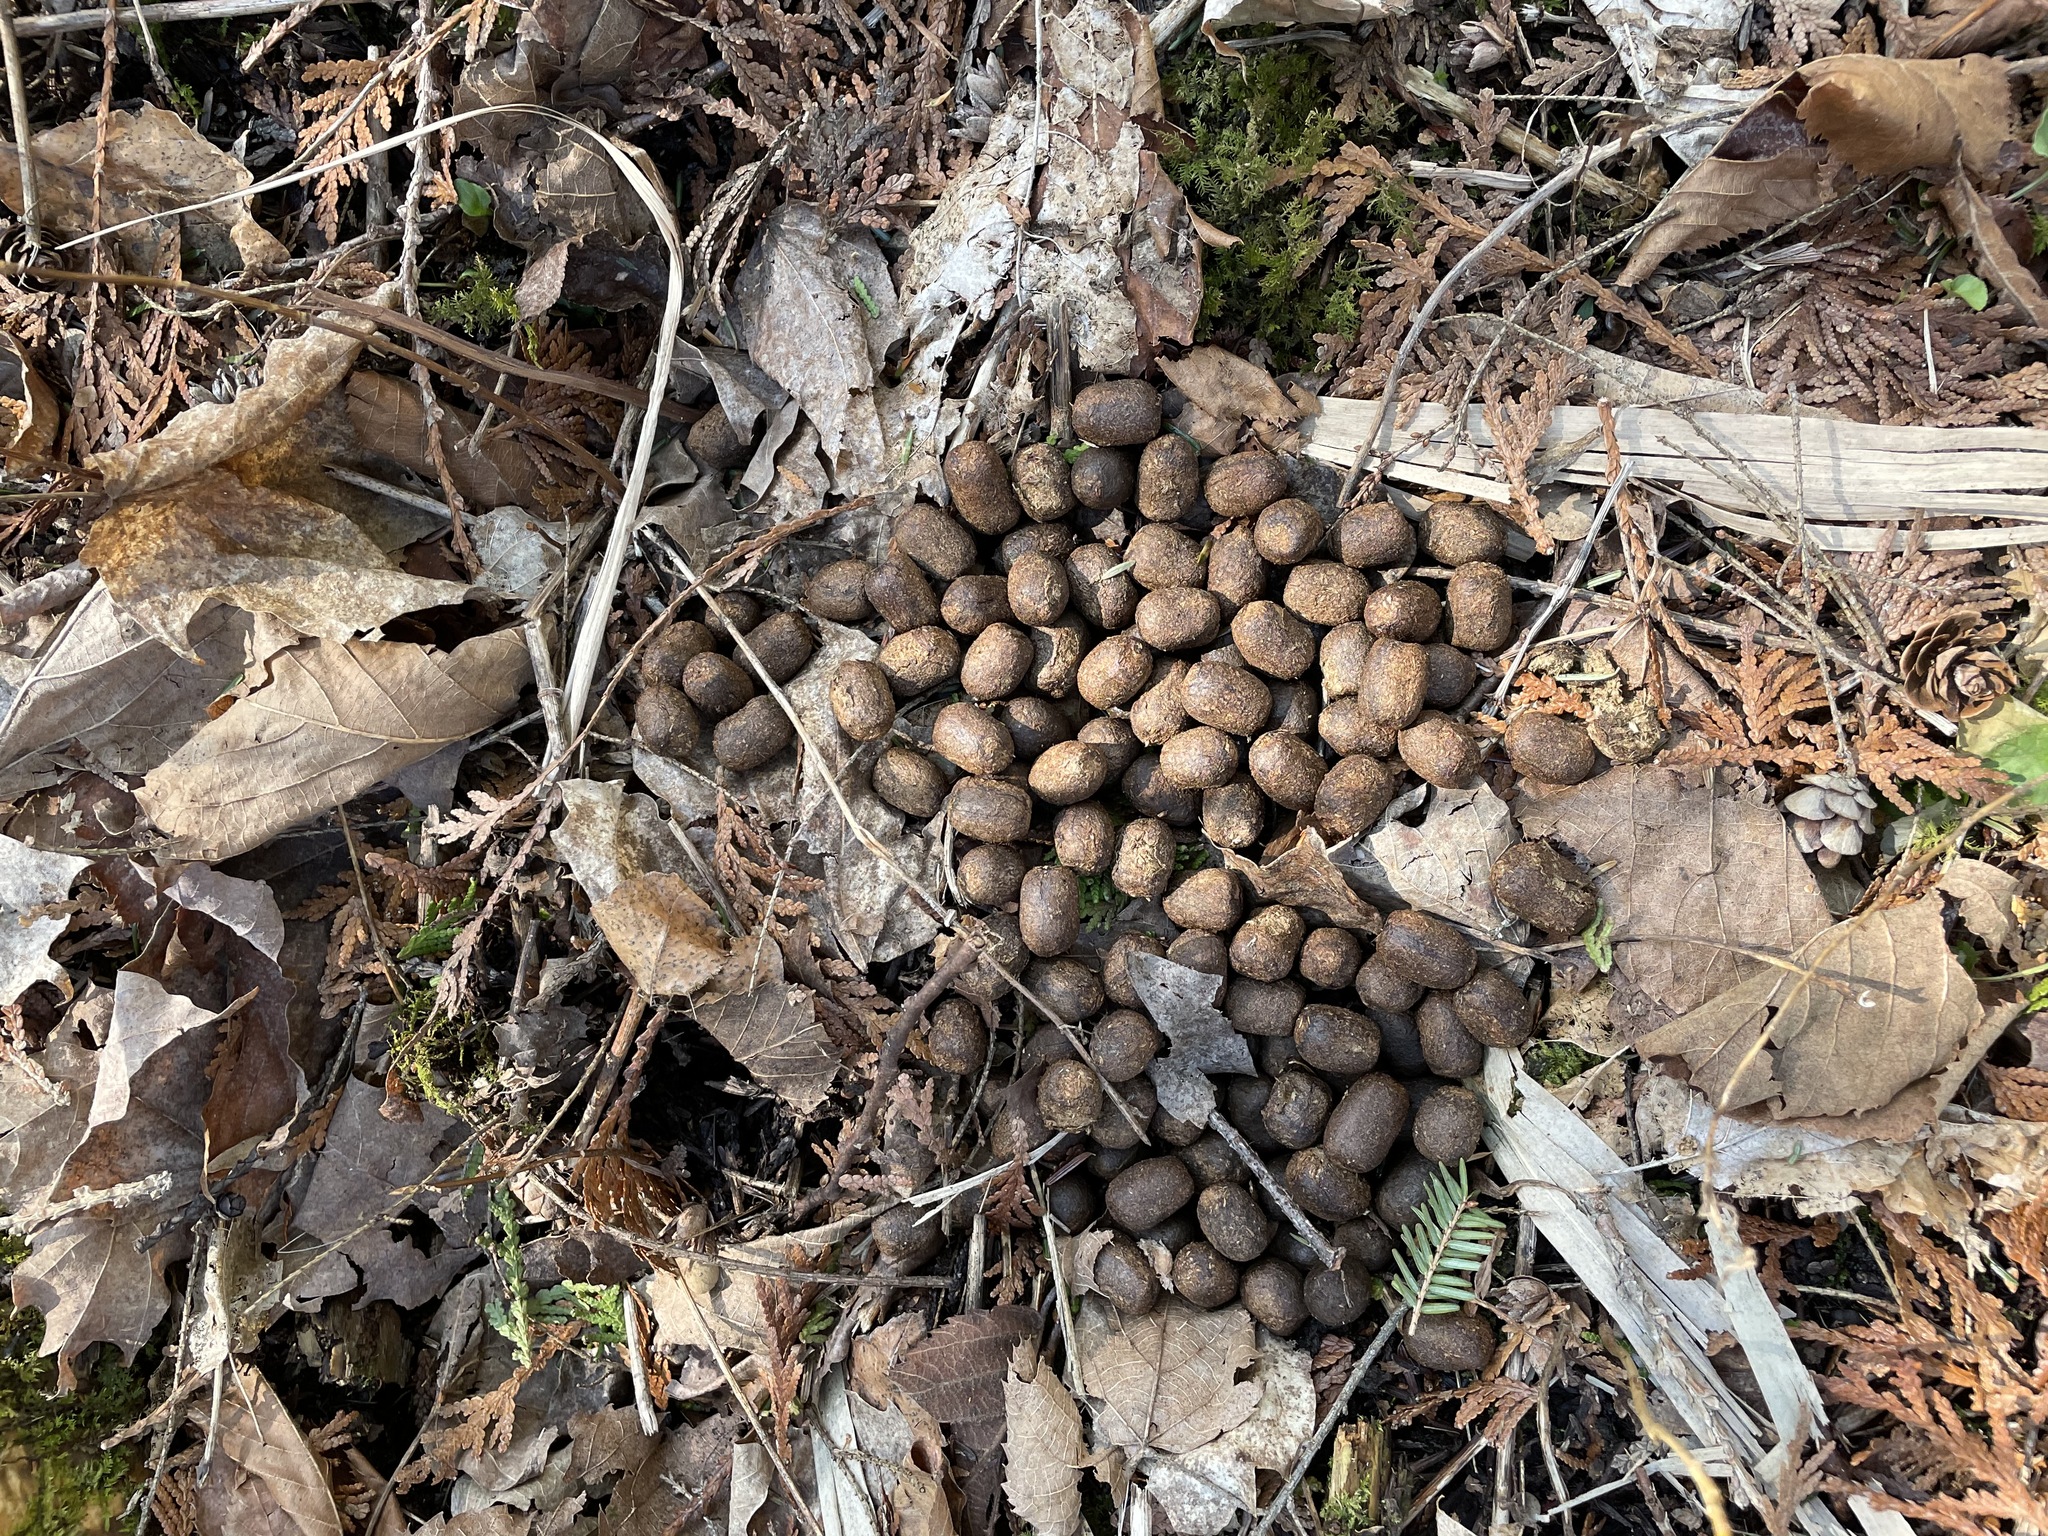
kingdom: Animalia
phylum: Chordata
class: Mammalia
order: Artiodactyla
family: Cervidae
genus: Odocoileus
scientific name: Odocoileus virginianus
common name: White-tailed deer
